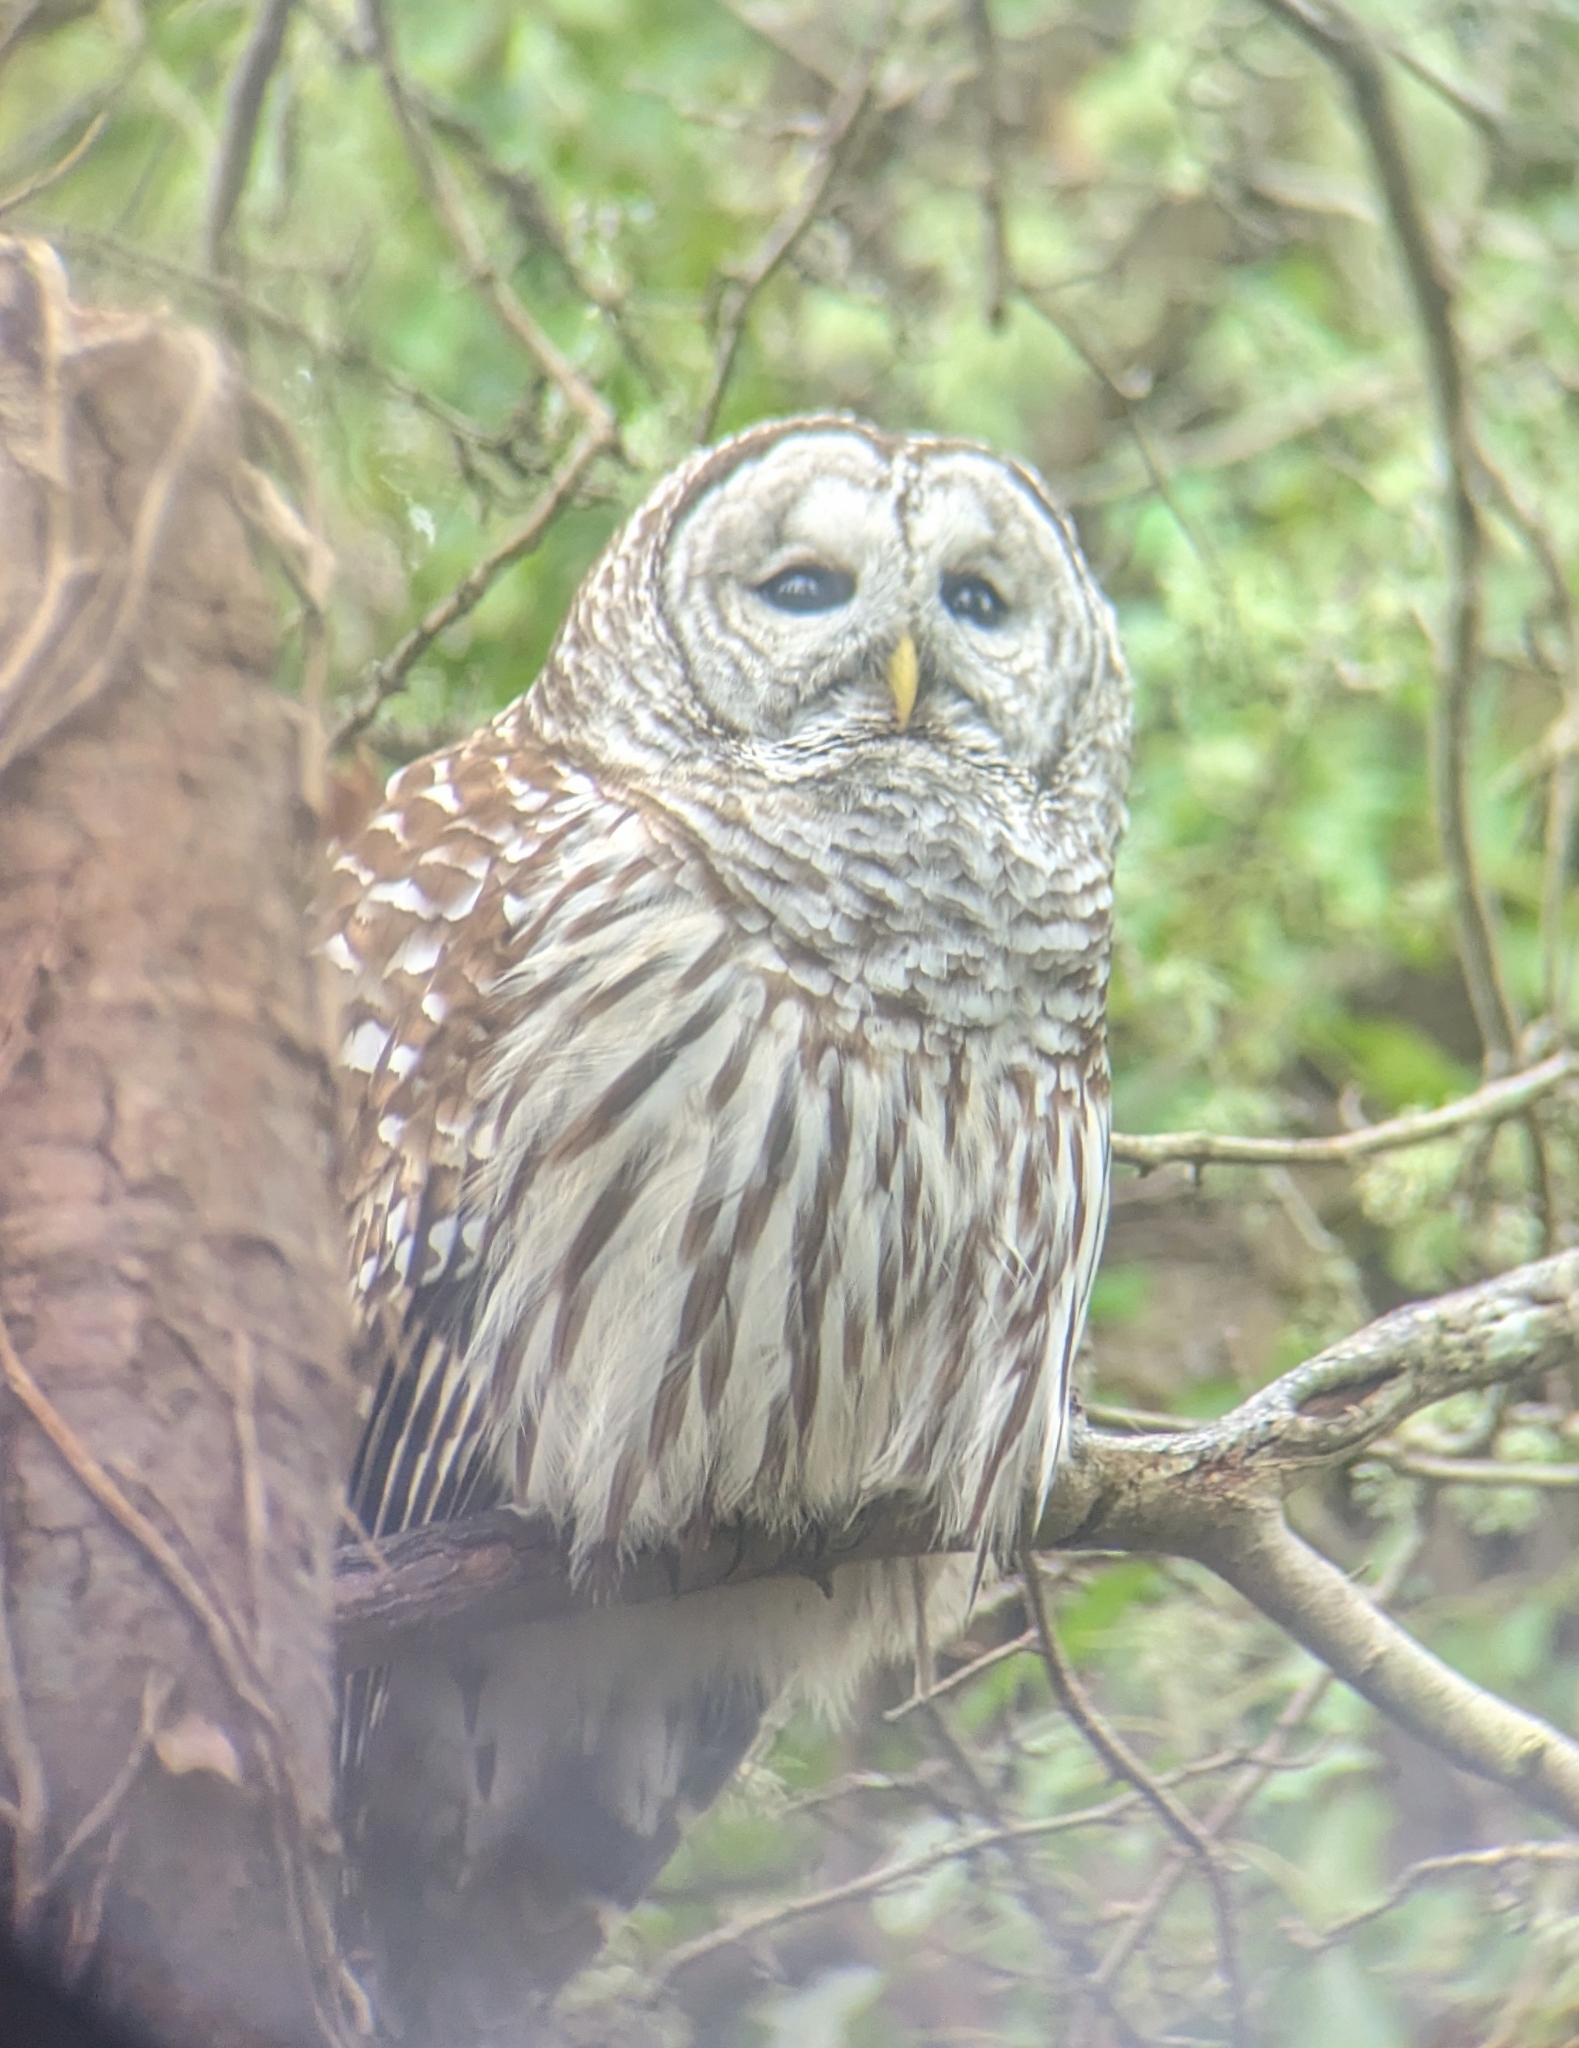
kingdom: Animalia
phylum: Chordata
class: Aves
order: Strigiformes
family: Strigidae
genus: Strix
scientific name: Strix varia
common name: Barred owl
